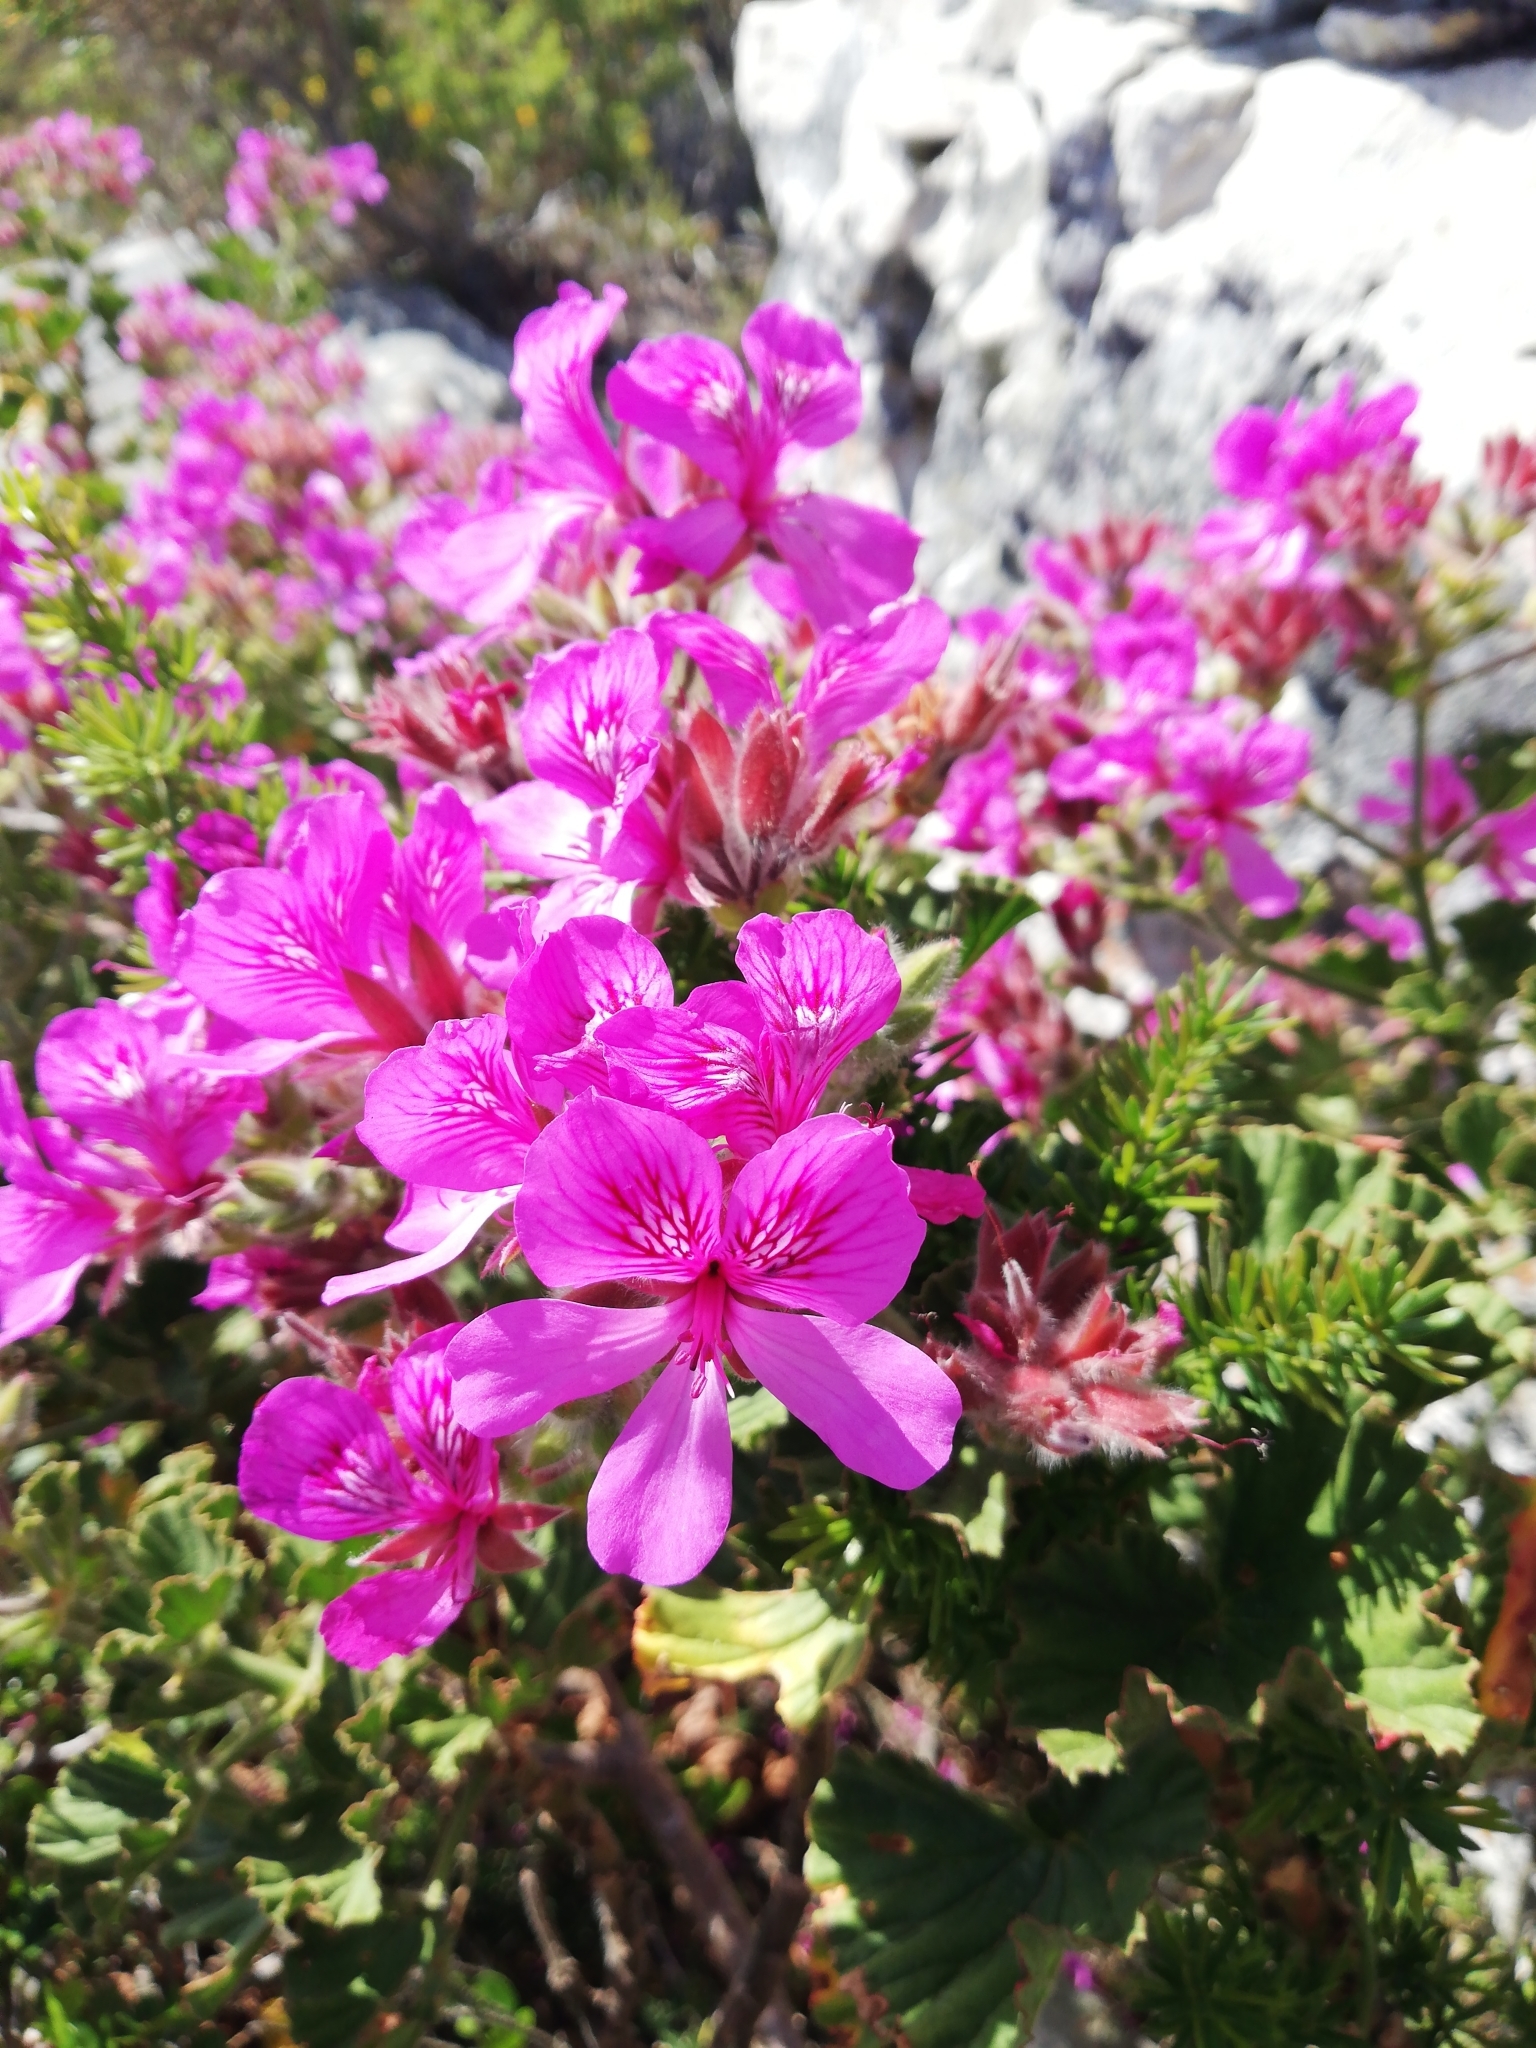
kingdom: Plantae
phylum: Tracheophyta
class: Magnoliopsida
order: Geraniales
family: Geraniaceae
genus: Pelargonium
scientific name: Pelargonium cucullatum
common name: Tree pelargonium
